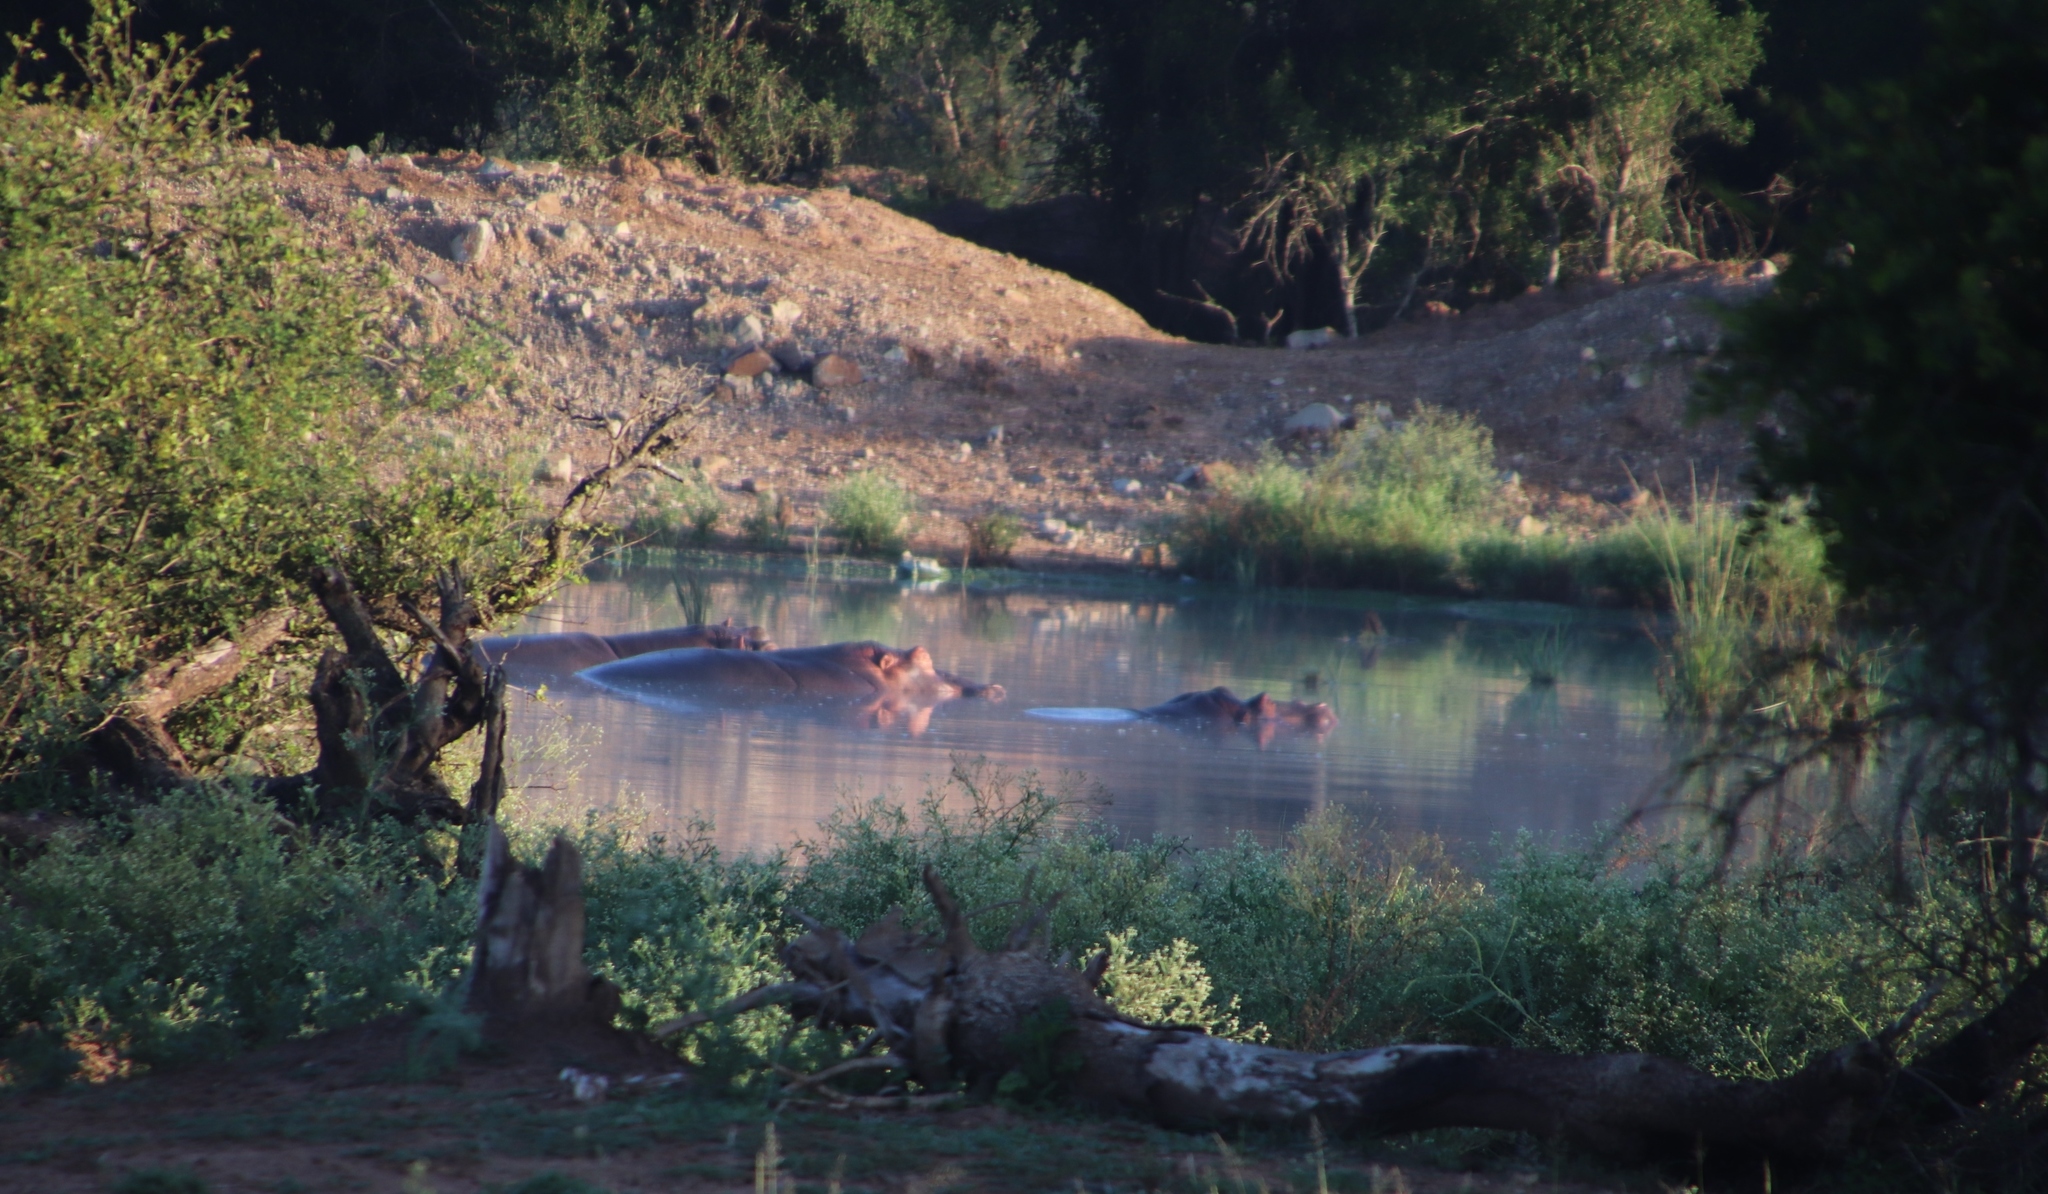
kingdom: Animalia
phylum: Chordata
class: Mammalia
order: Artiodactyla
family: Hippopotamidae
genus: Hippopotamus
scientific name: Hippopotamus amphibius
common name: Common hippopotamus
